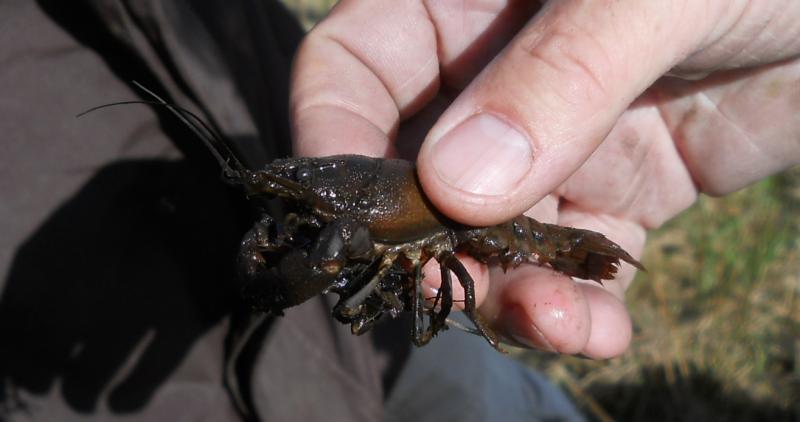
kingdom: Animalia
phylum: Arthropoda
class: Malacostraca
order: Decapoda
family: Cambaridae
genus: Faxonius
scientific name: Faxonius limosus
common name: American crayfish
